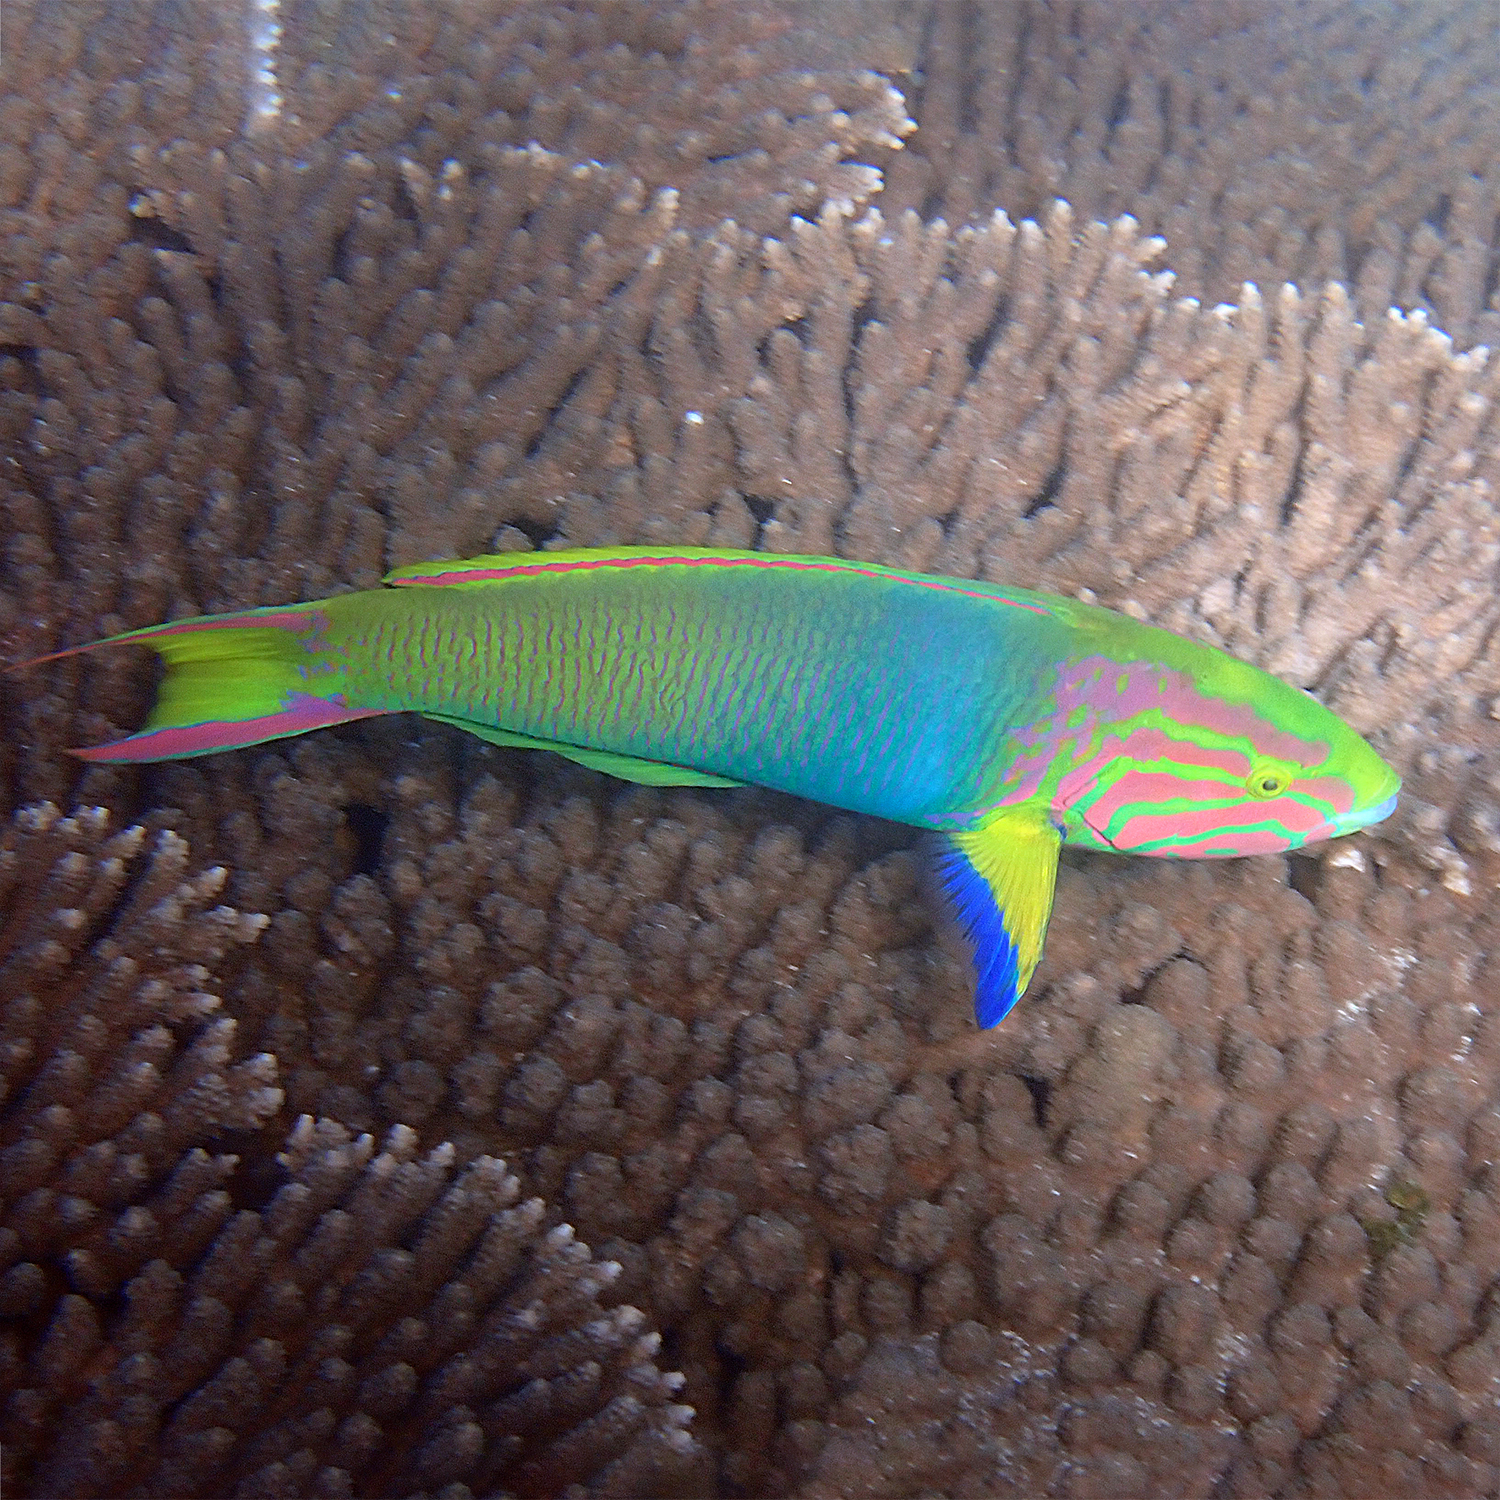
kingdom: Animalia
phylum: Chordata
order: Perciformes
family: Labridae
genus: Thalassoma
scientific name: Thalassoma lutescens
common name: Green moon wrasse
